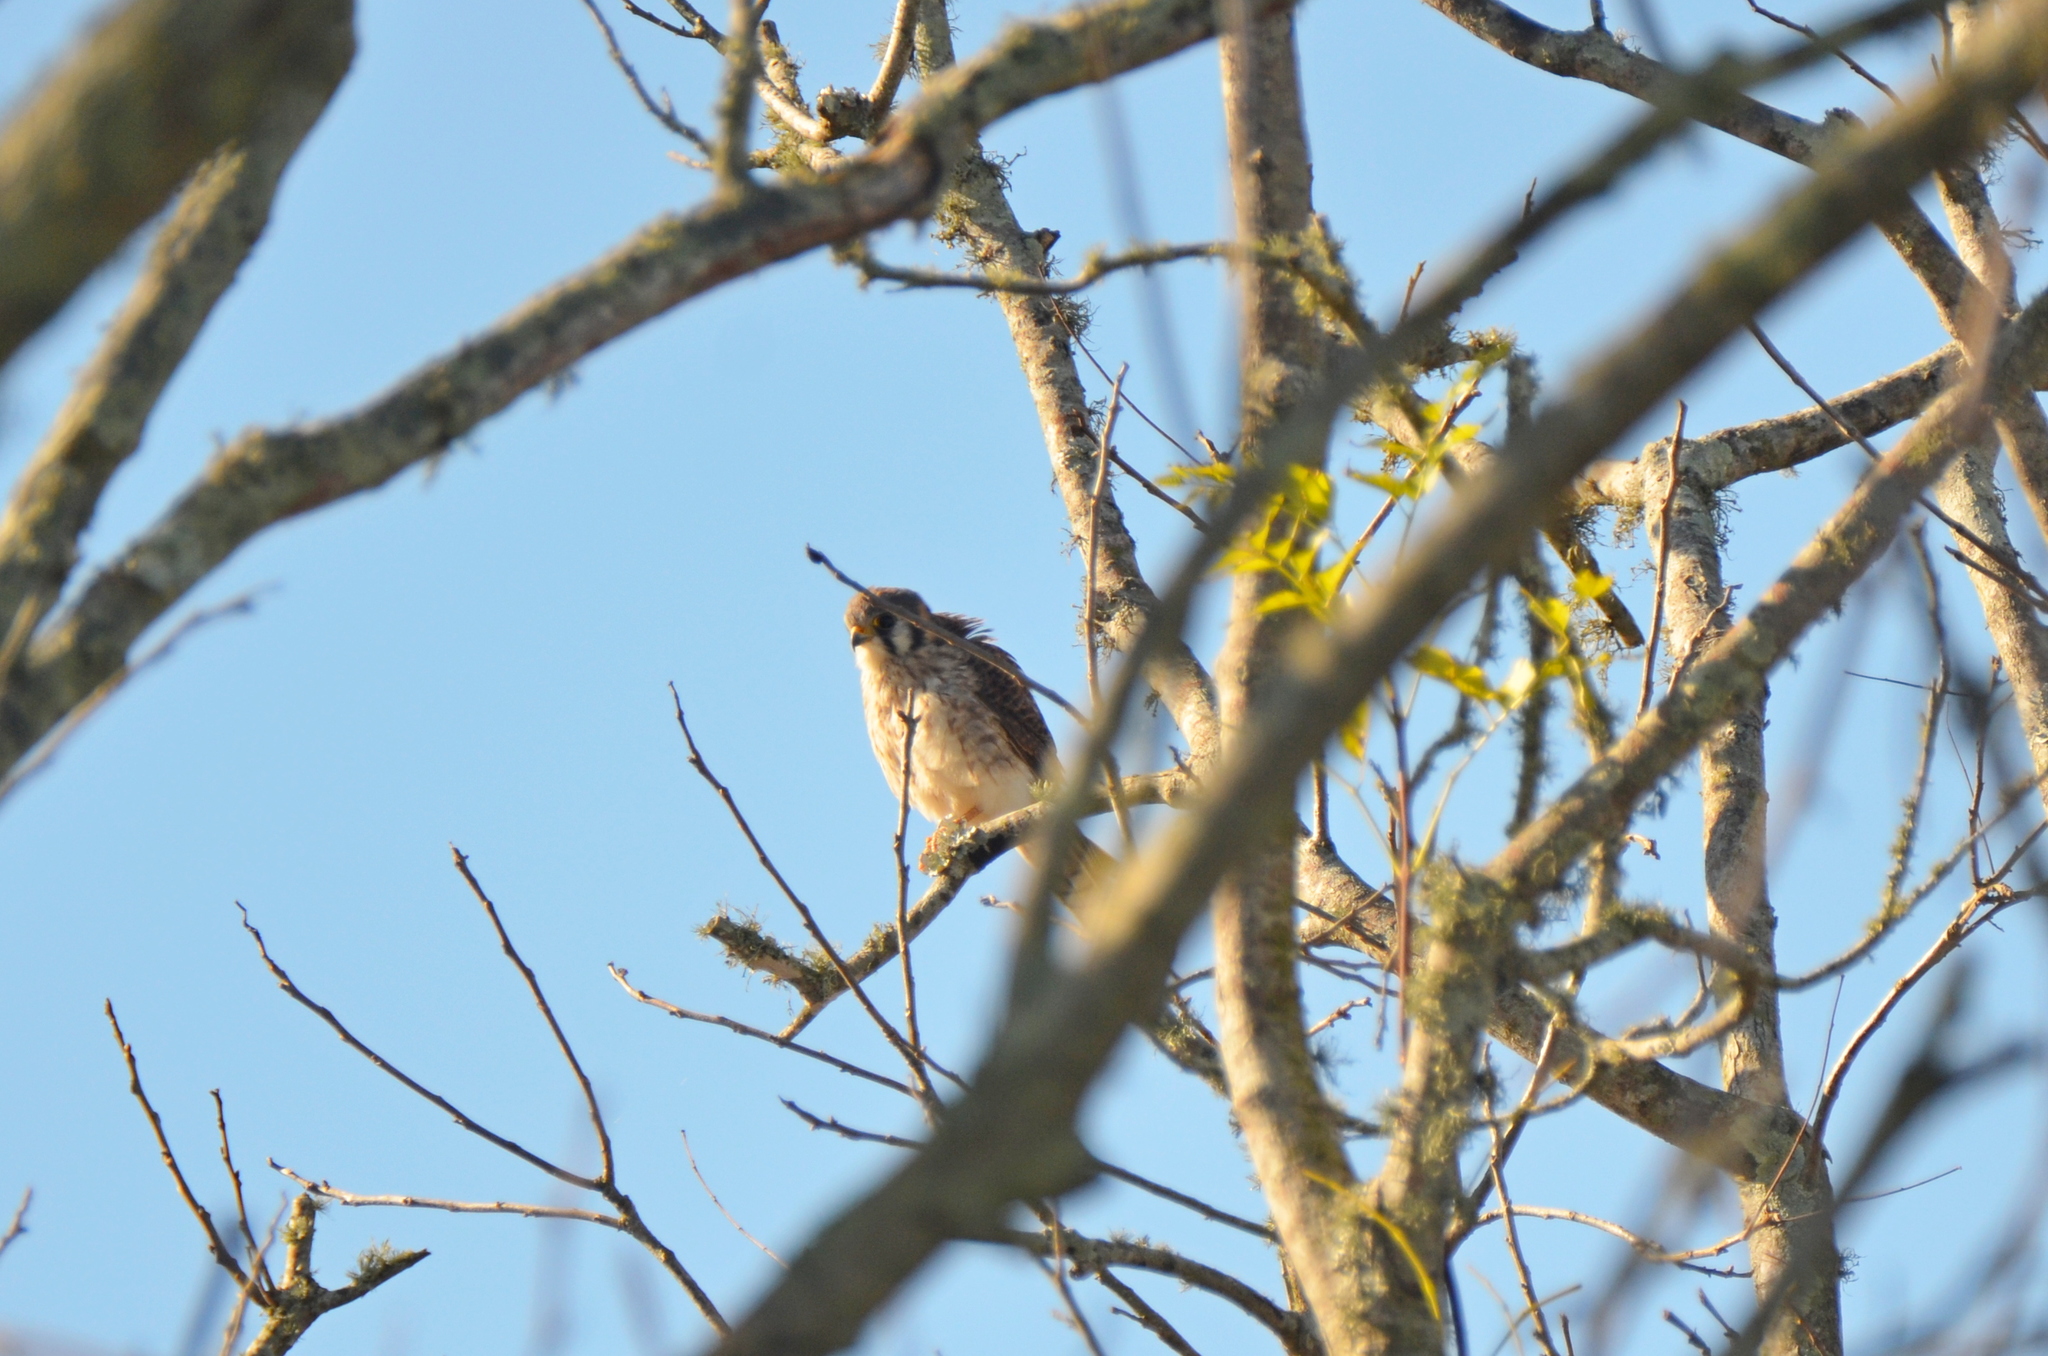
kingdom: Animalia
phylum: Chordata
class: Aves
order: Falconiformes
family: Falconidae
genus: Falco
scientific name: Falco sparverius
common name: American kestrel
